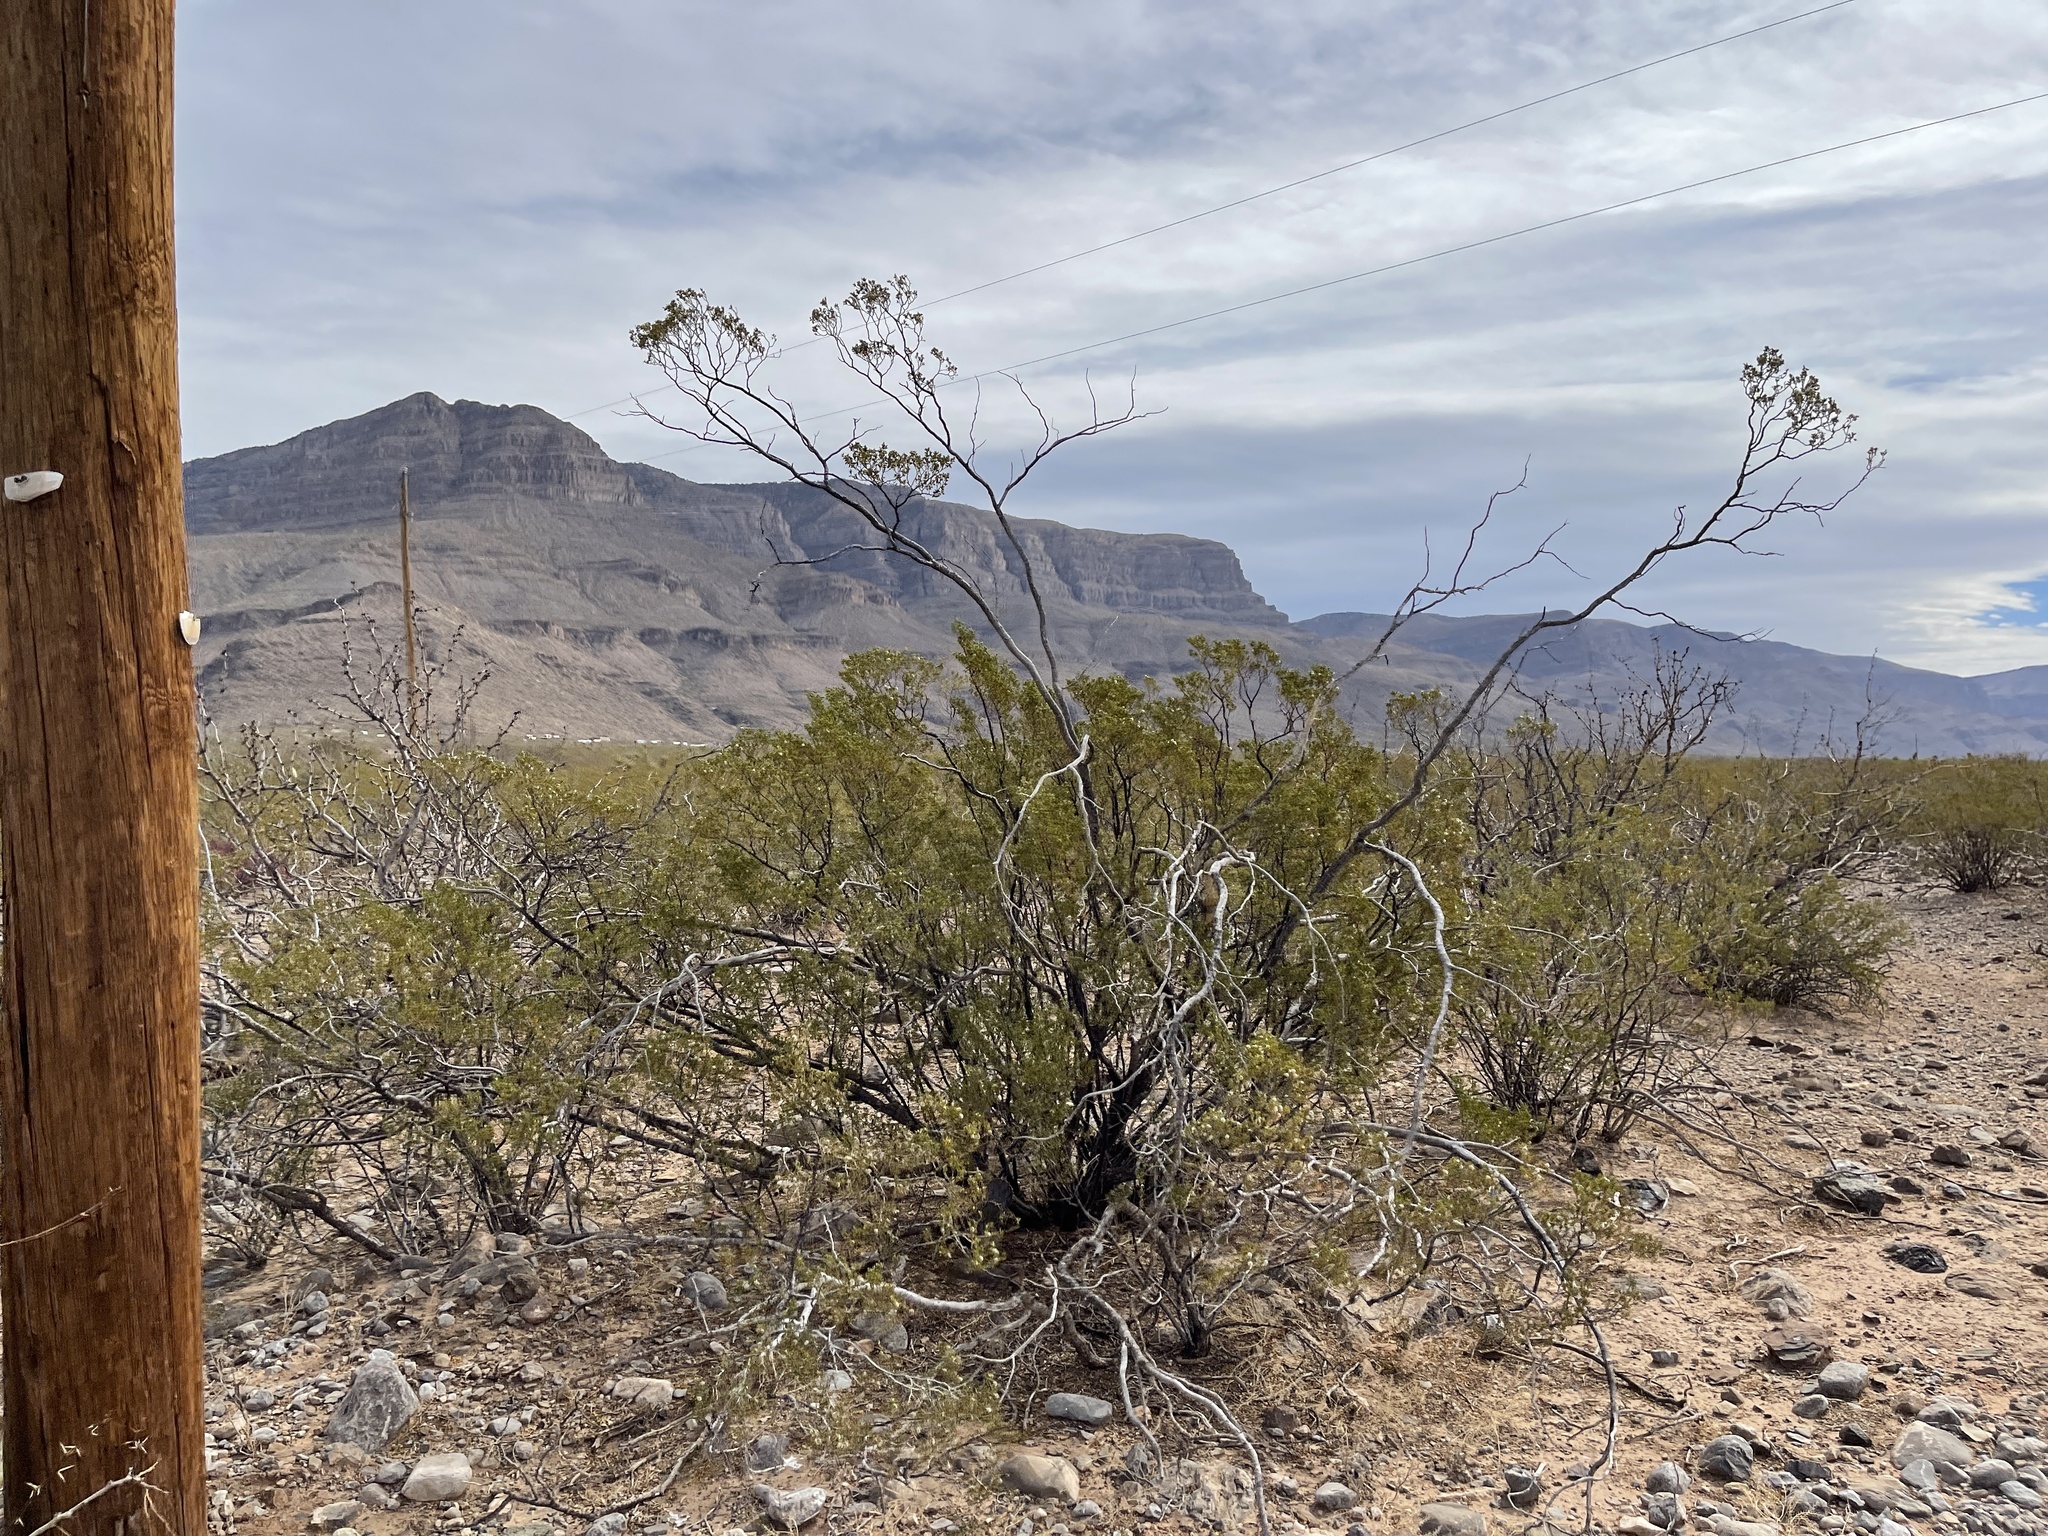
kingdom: Plantae
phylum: Tracheophyta
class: Magnoliopsida
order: Zygophyllales
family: Zygophyllaceae
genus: Larrea
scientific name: Larrea tridentata
